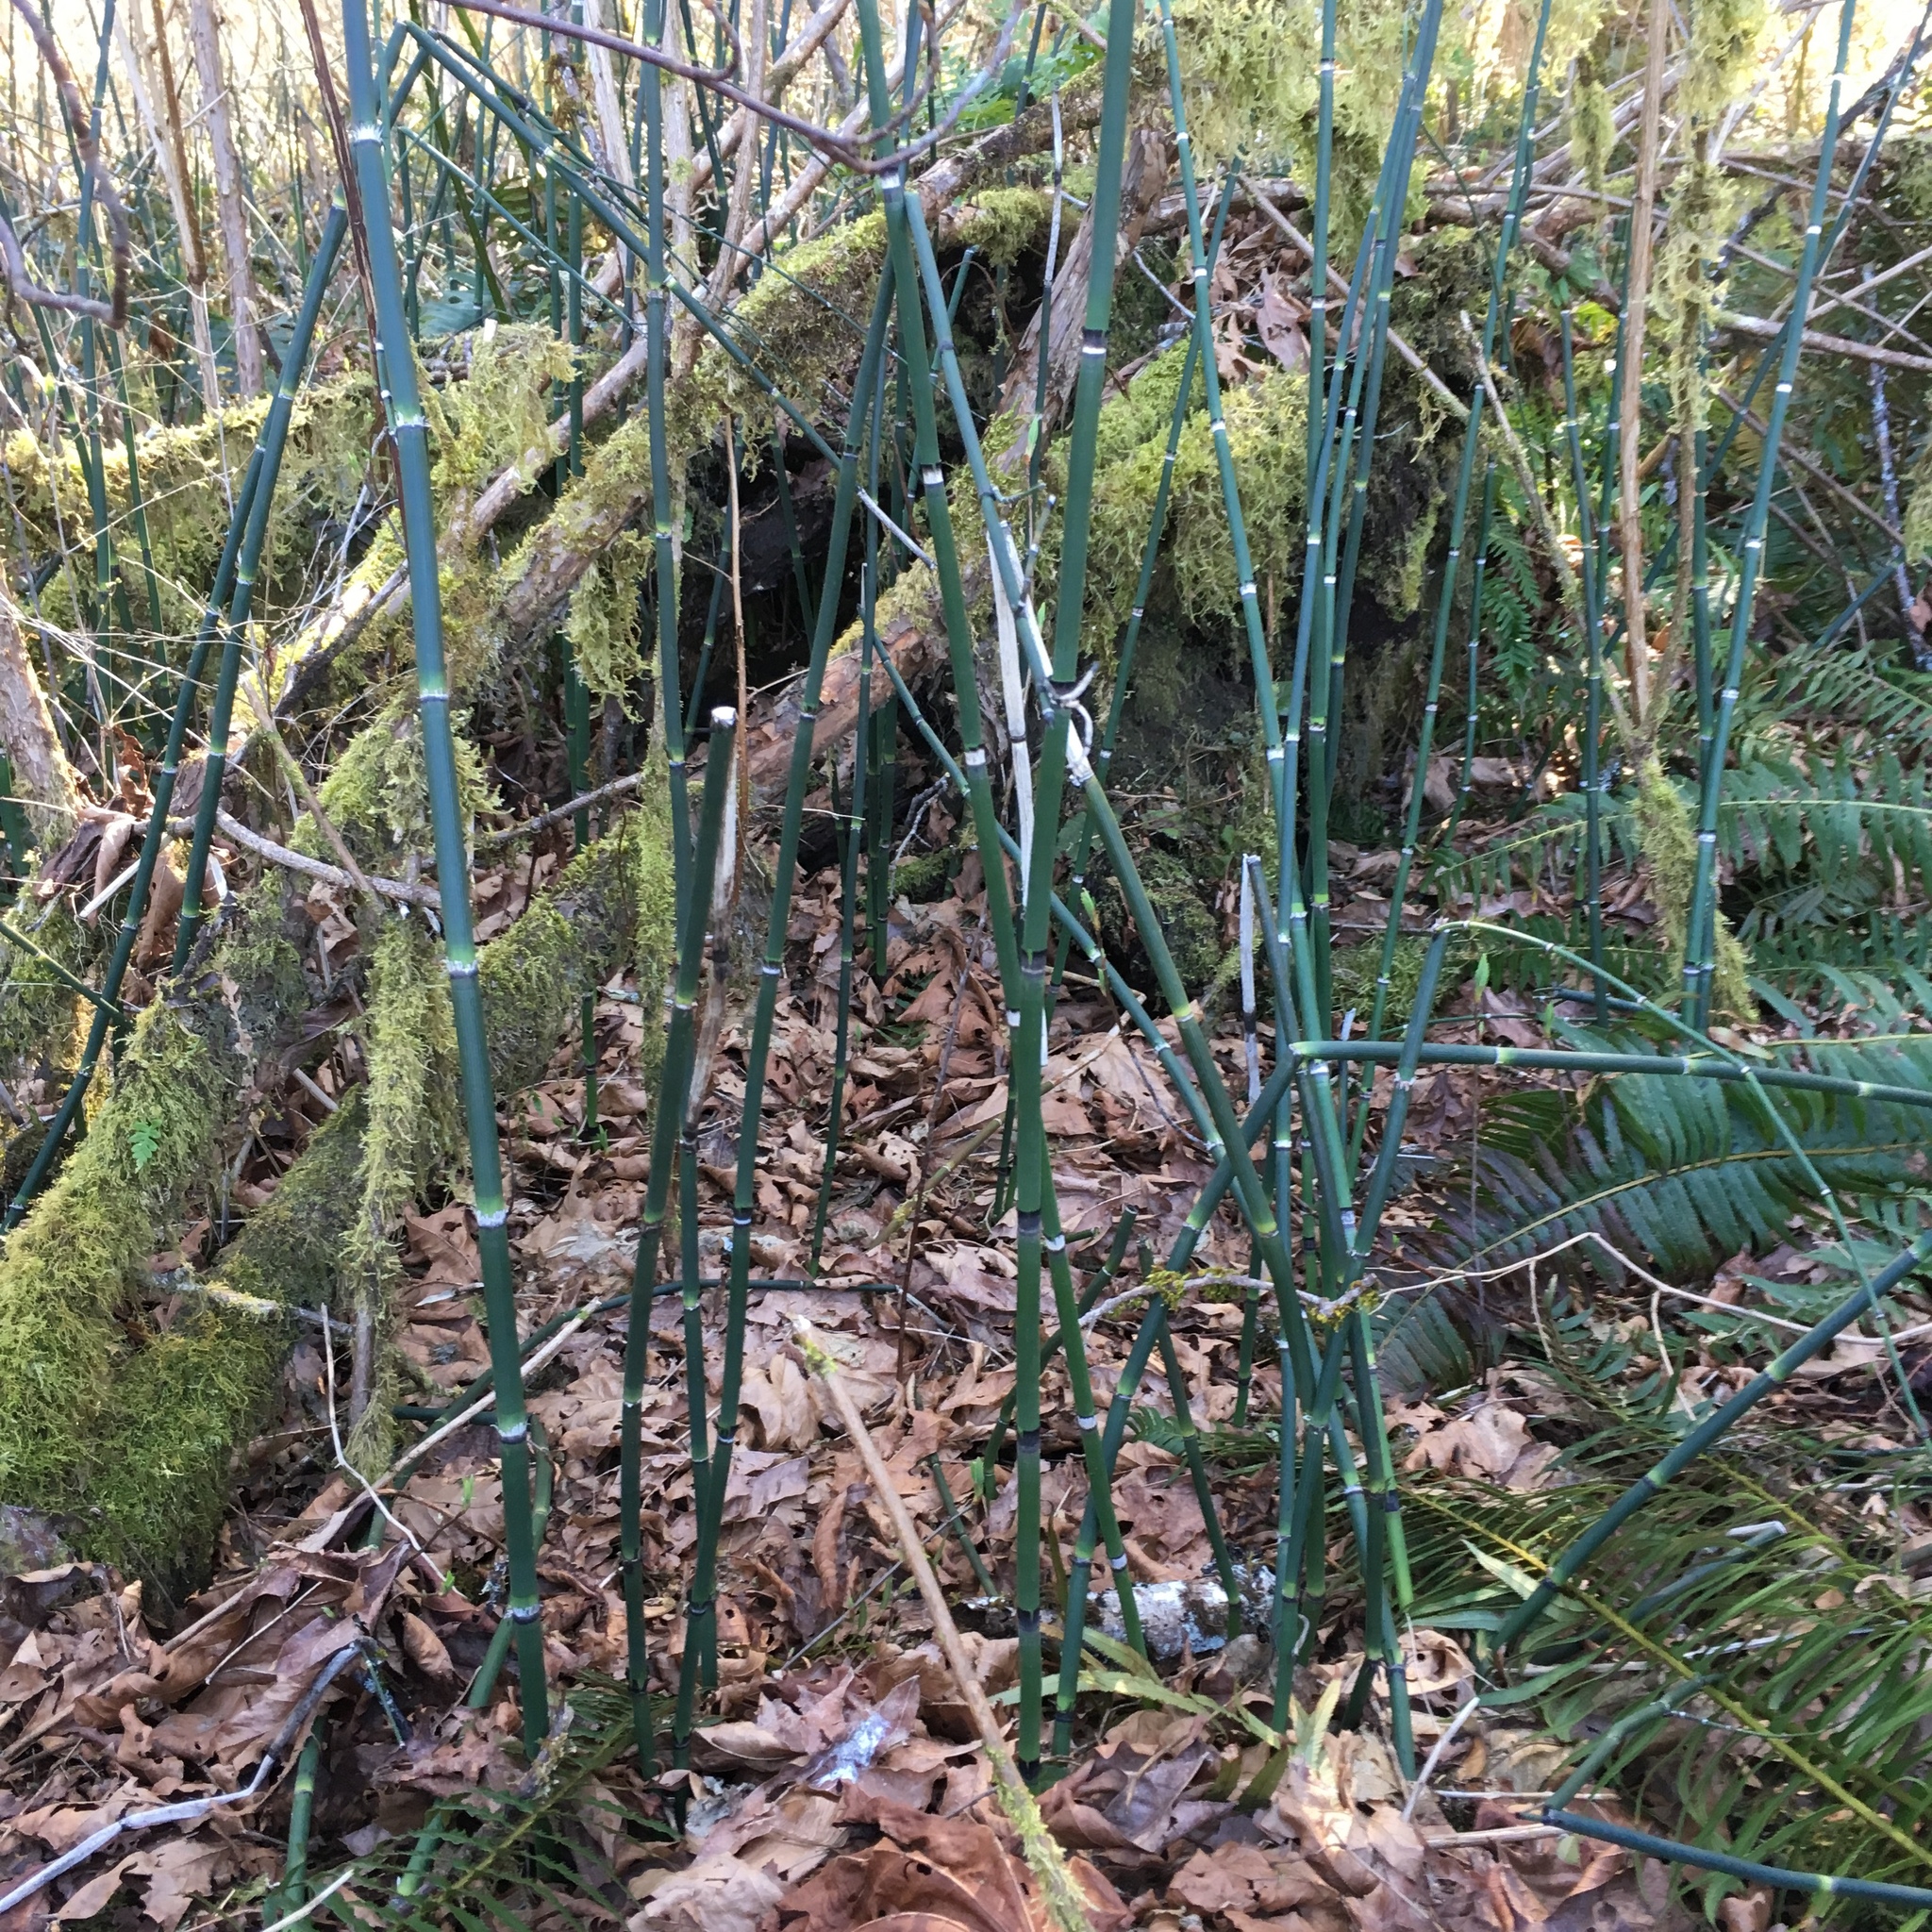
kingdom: Plantae
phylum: Tracheophyta
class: Polypodiopsida
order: Equisetales
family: Equisetaceae
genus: Equisetum
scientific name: Equisetum hyemale
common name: Rough horsetail
